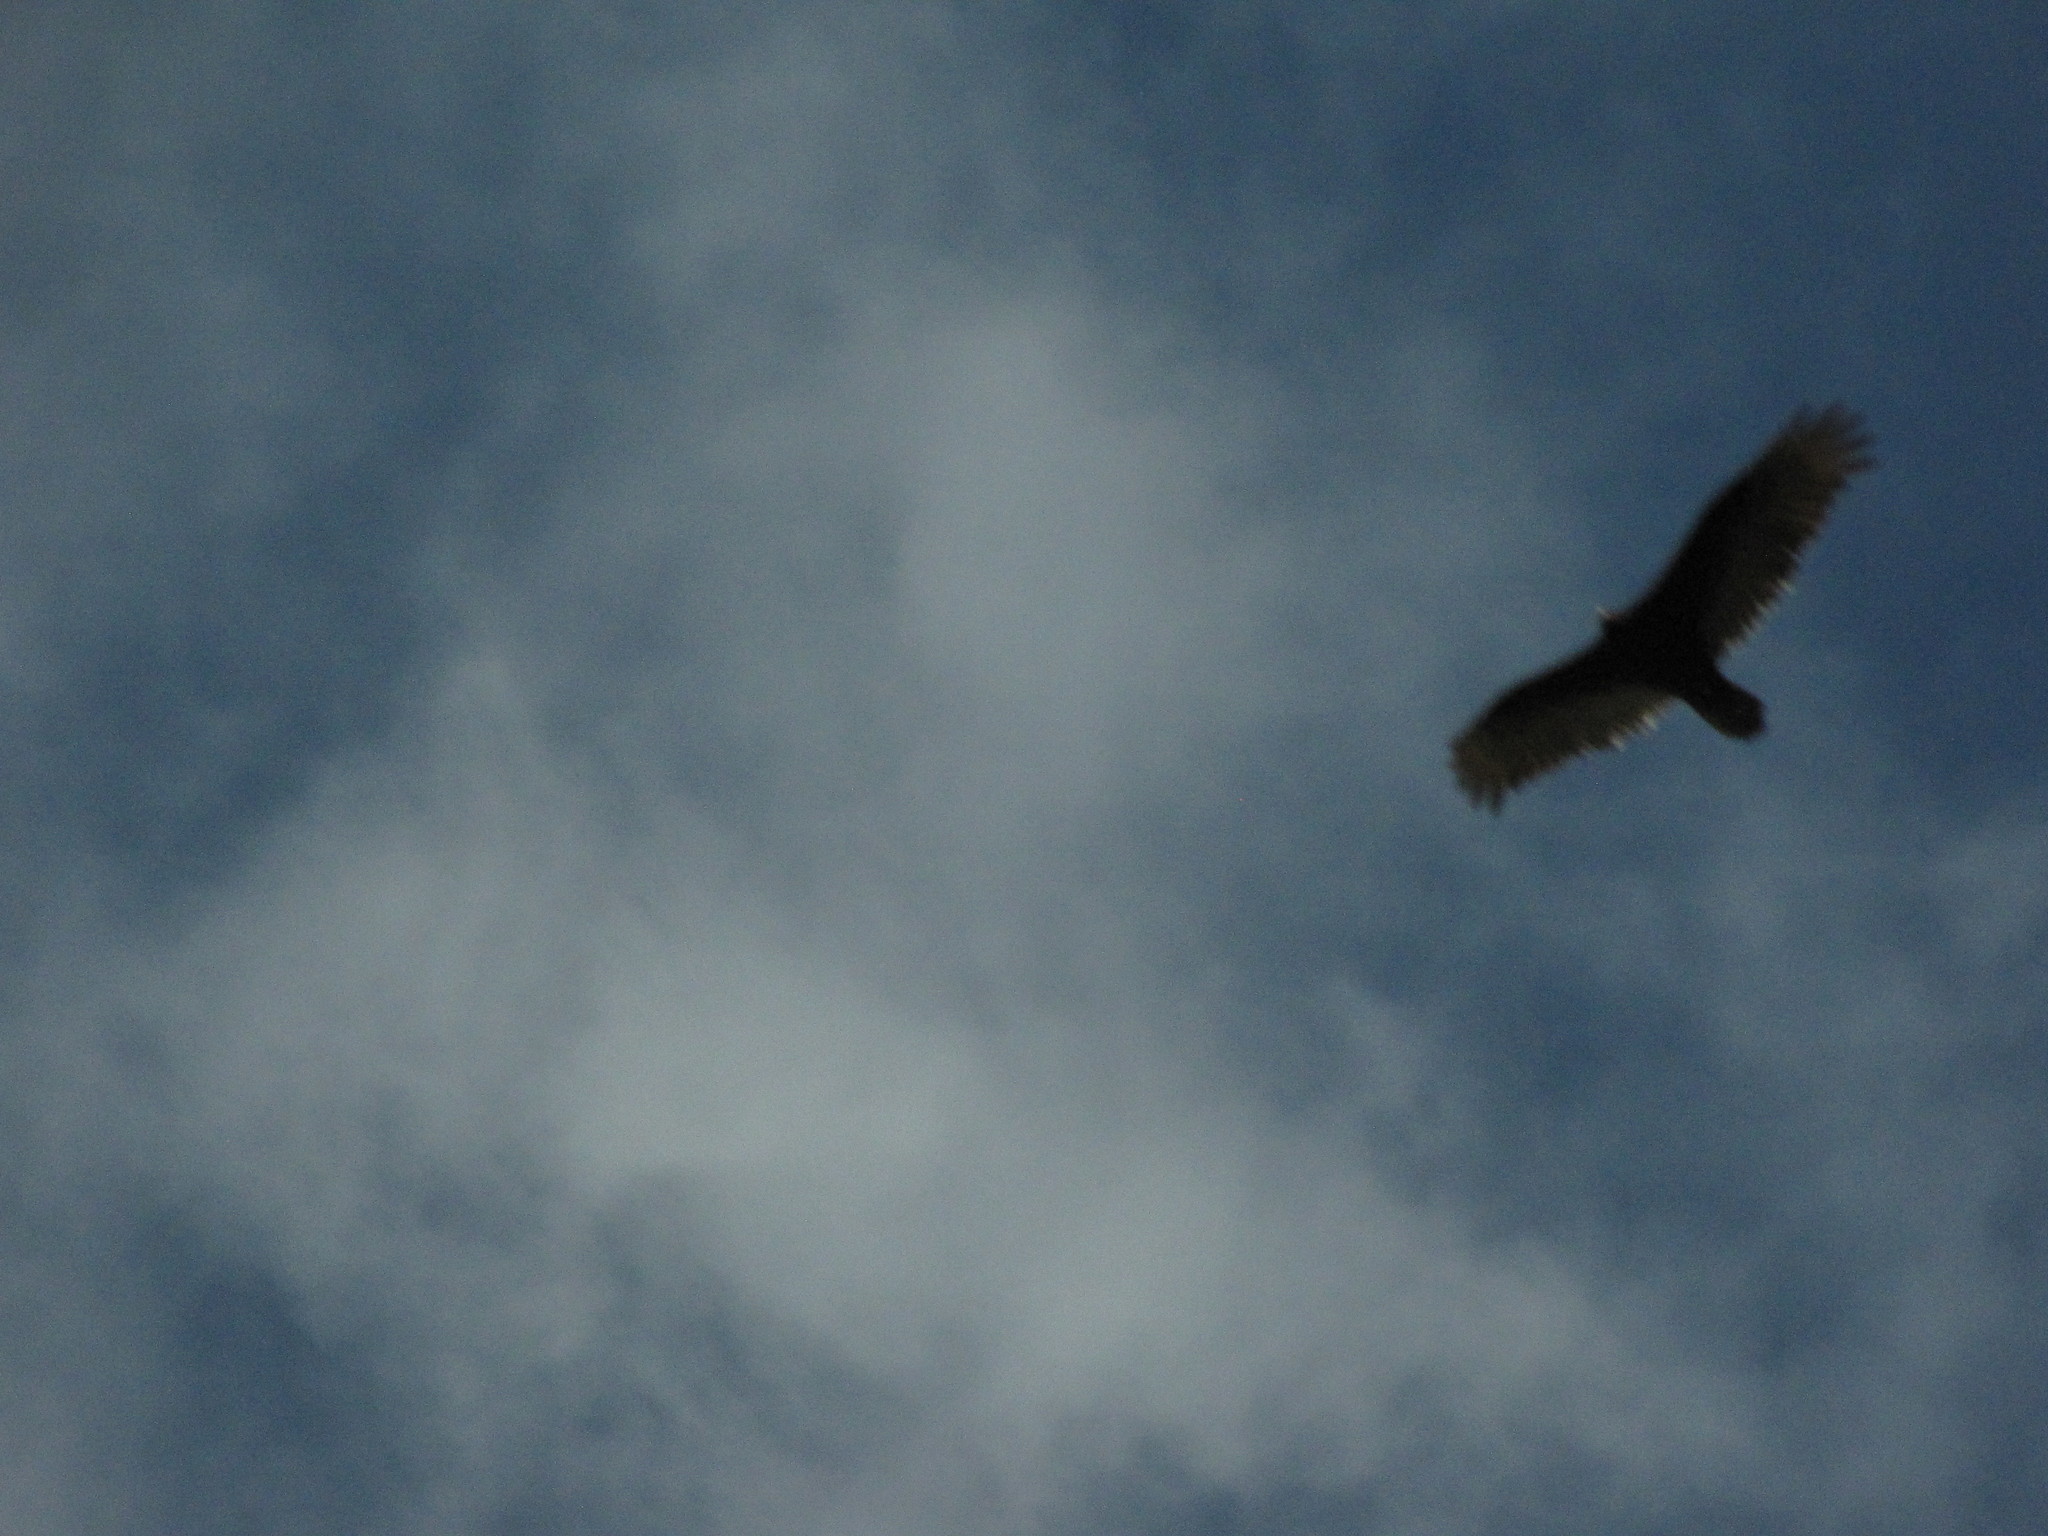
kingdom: Animalia
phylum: Chordata
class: Aves
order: Accipitriformes
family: Cathartidae
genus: Cathartes
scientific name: Cathartes aura
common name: Turkey vulture
